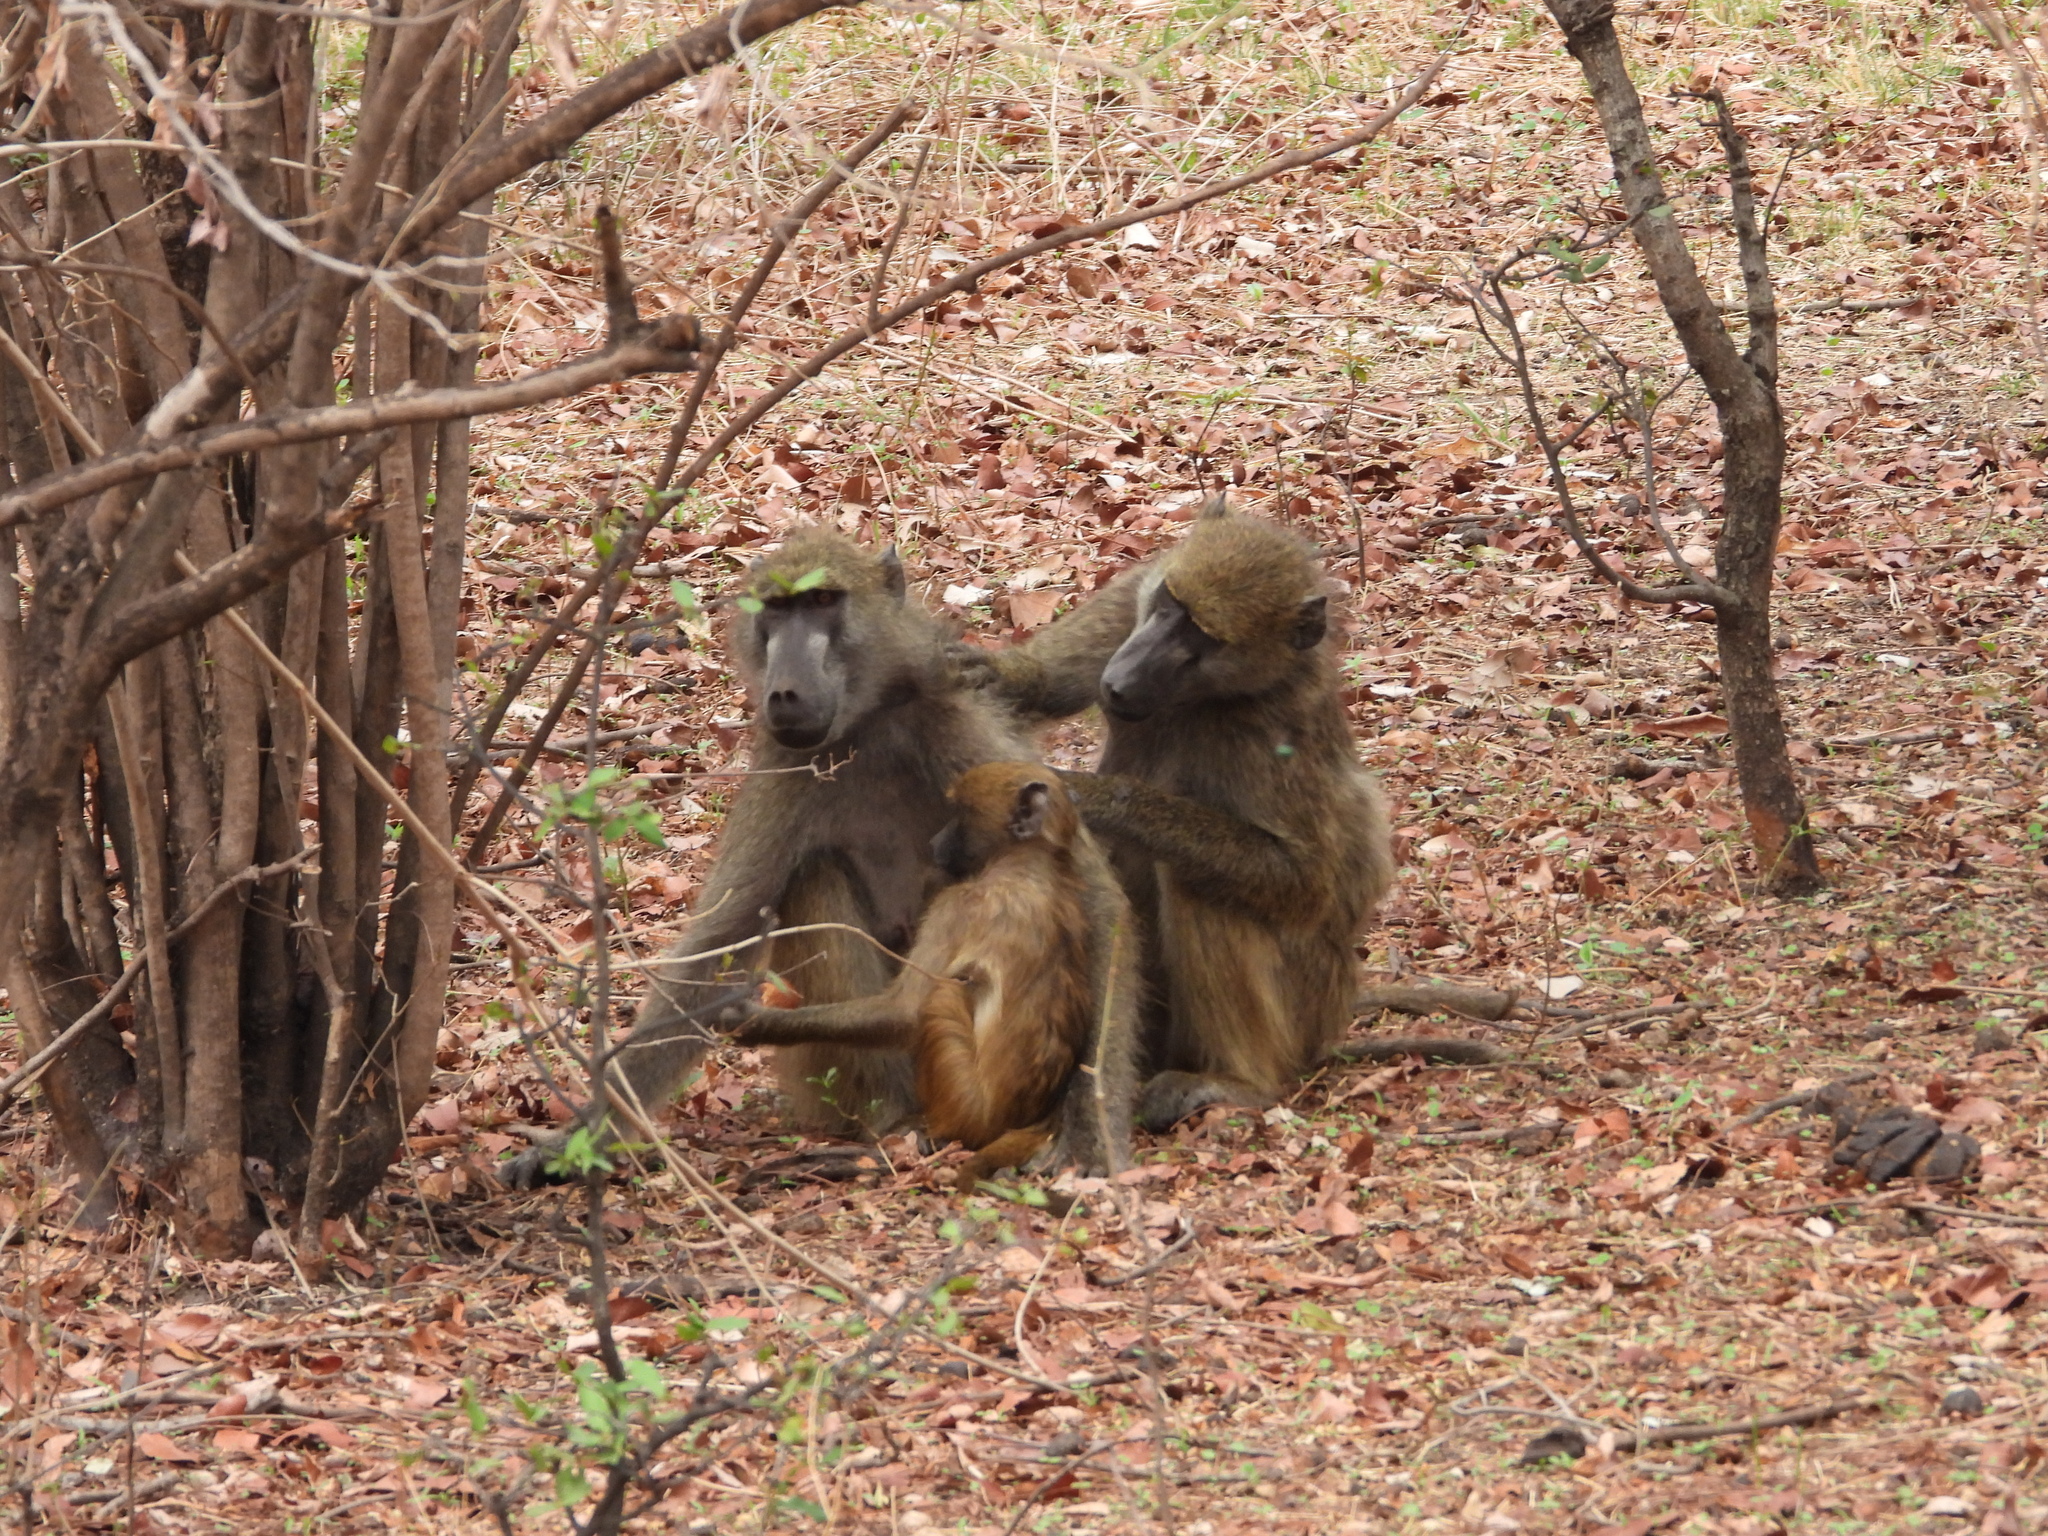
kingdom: Animalia
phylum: Chordata
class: Mammalia
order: Primates
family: Cercopithecidae
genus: Papio
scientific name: Papio ursinus
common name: Chacma baboon
